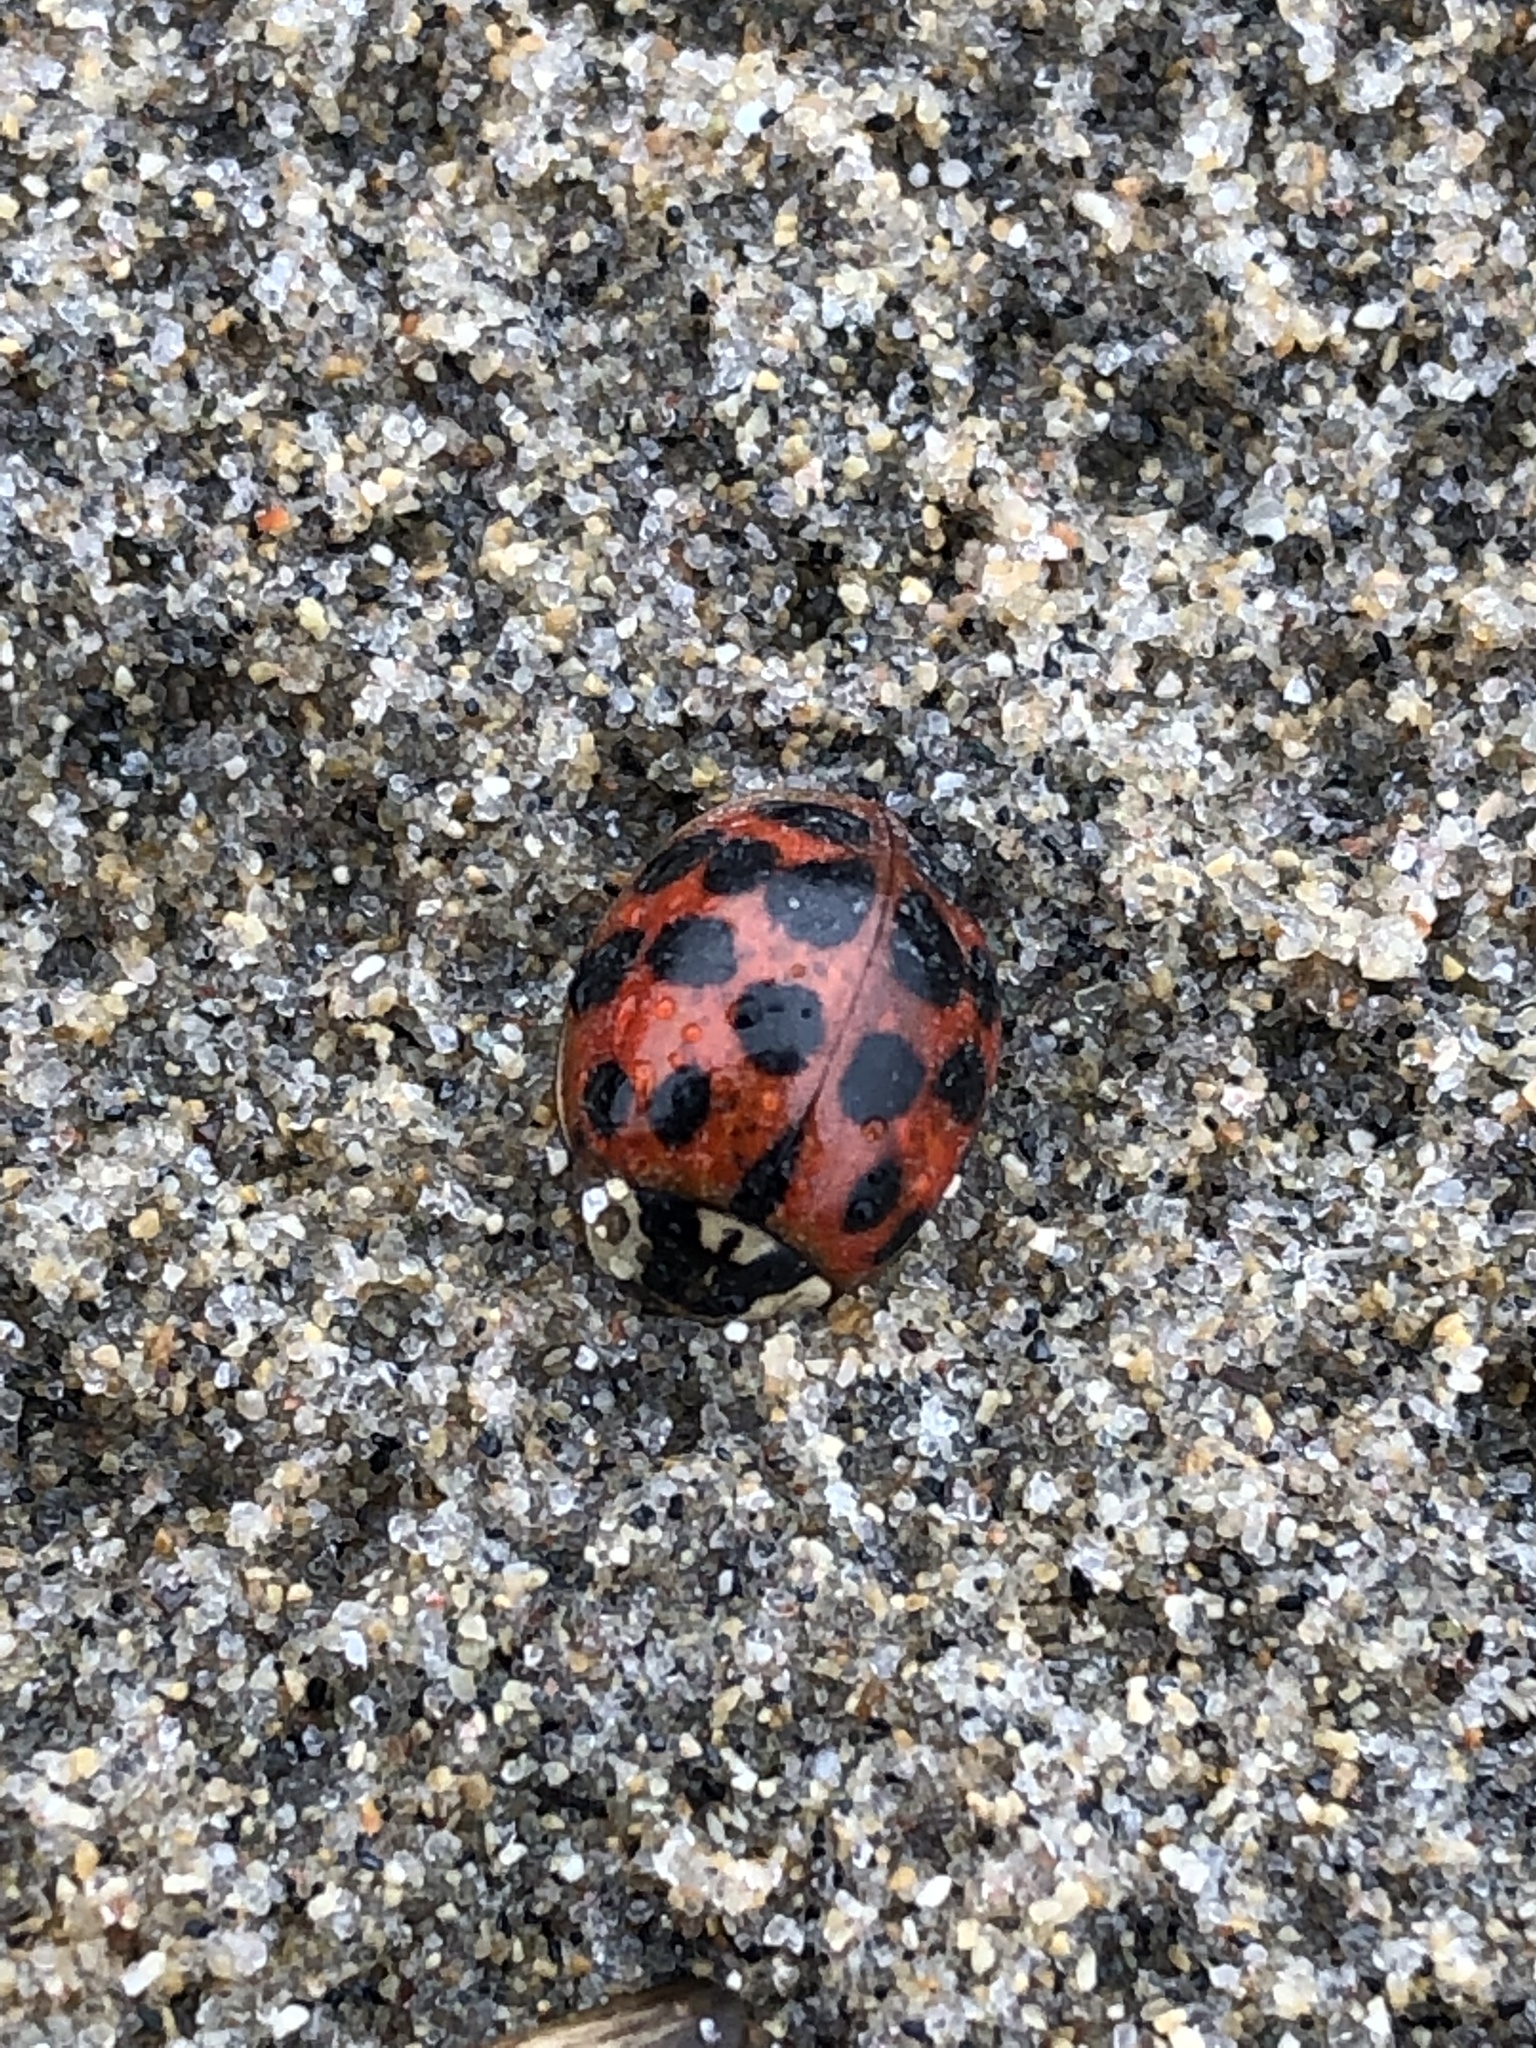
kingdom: Animalia
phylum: Arthropoda
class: Insecta
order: Coleoptera
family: Coccinellidae
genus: Harmonia
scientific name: Harmonia axyridis
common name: Harlequin ladybird
